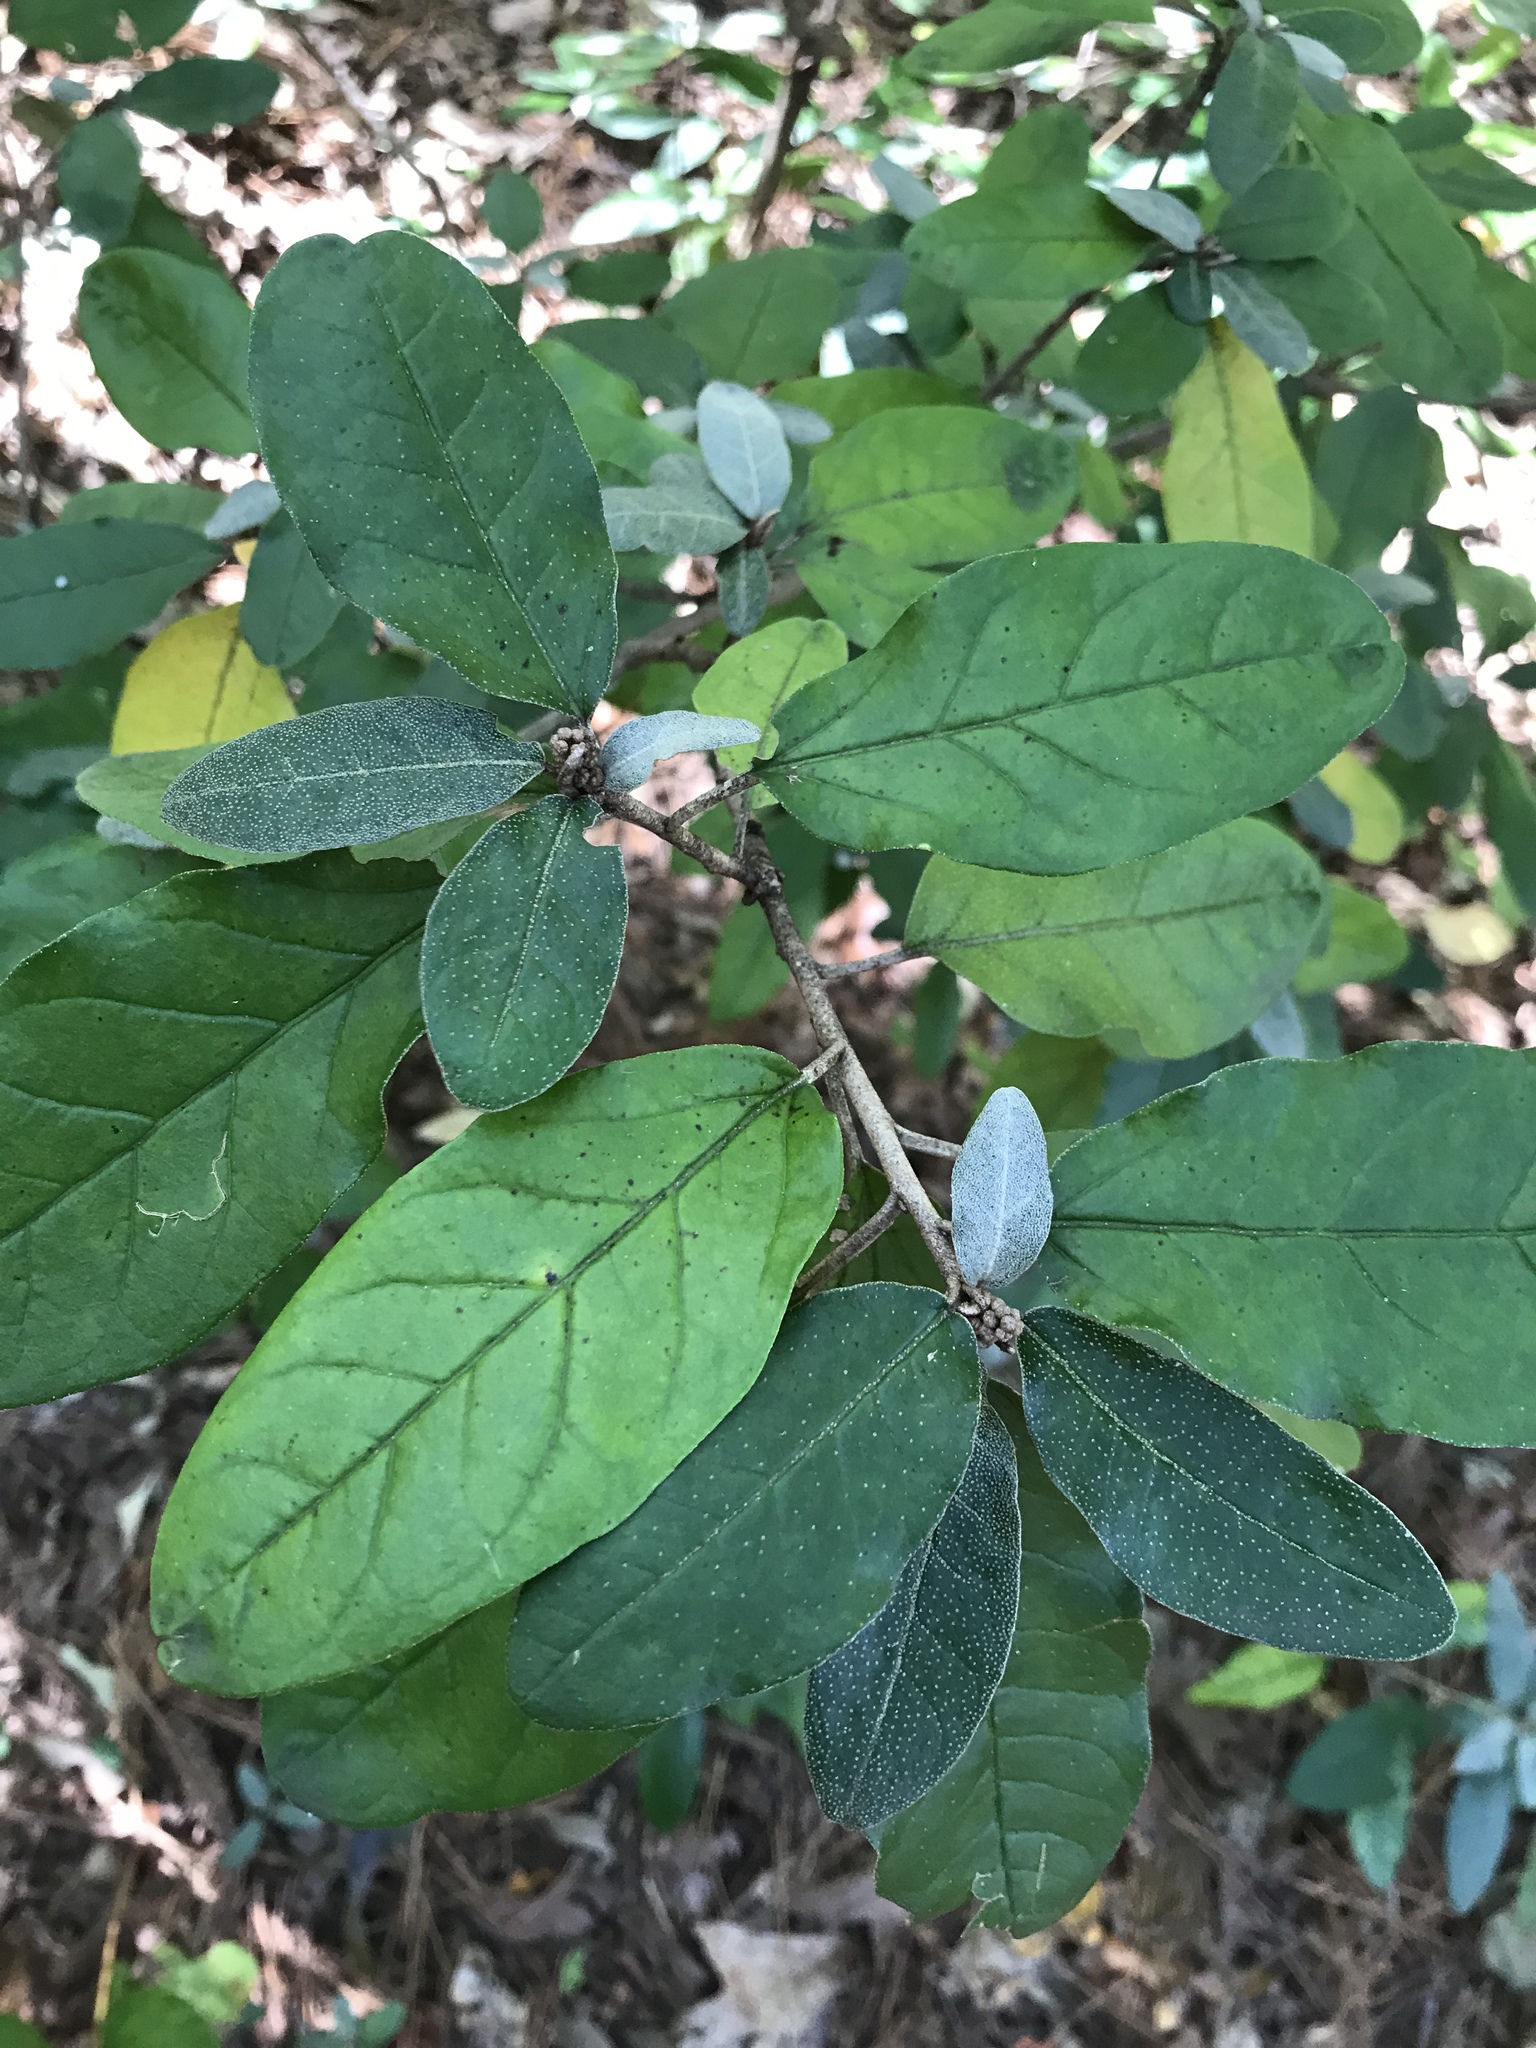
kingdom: Plantae
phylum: Tracheophyta
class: Magnoliopsida
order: Malpighiales
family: Euphorbiaceae
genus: Croton
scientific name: Croton alabamensis
